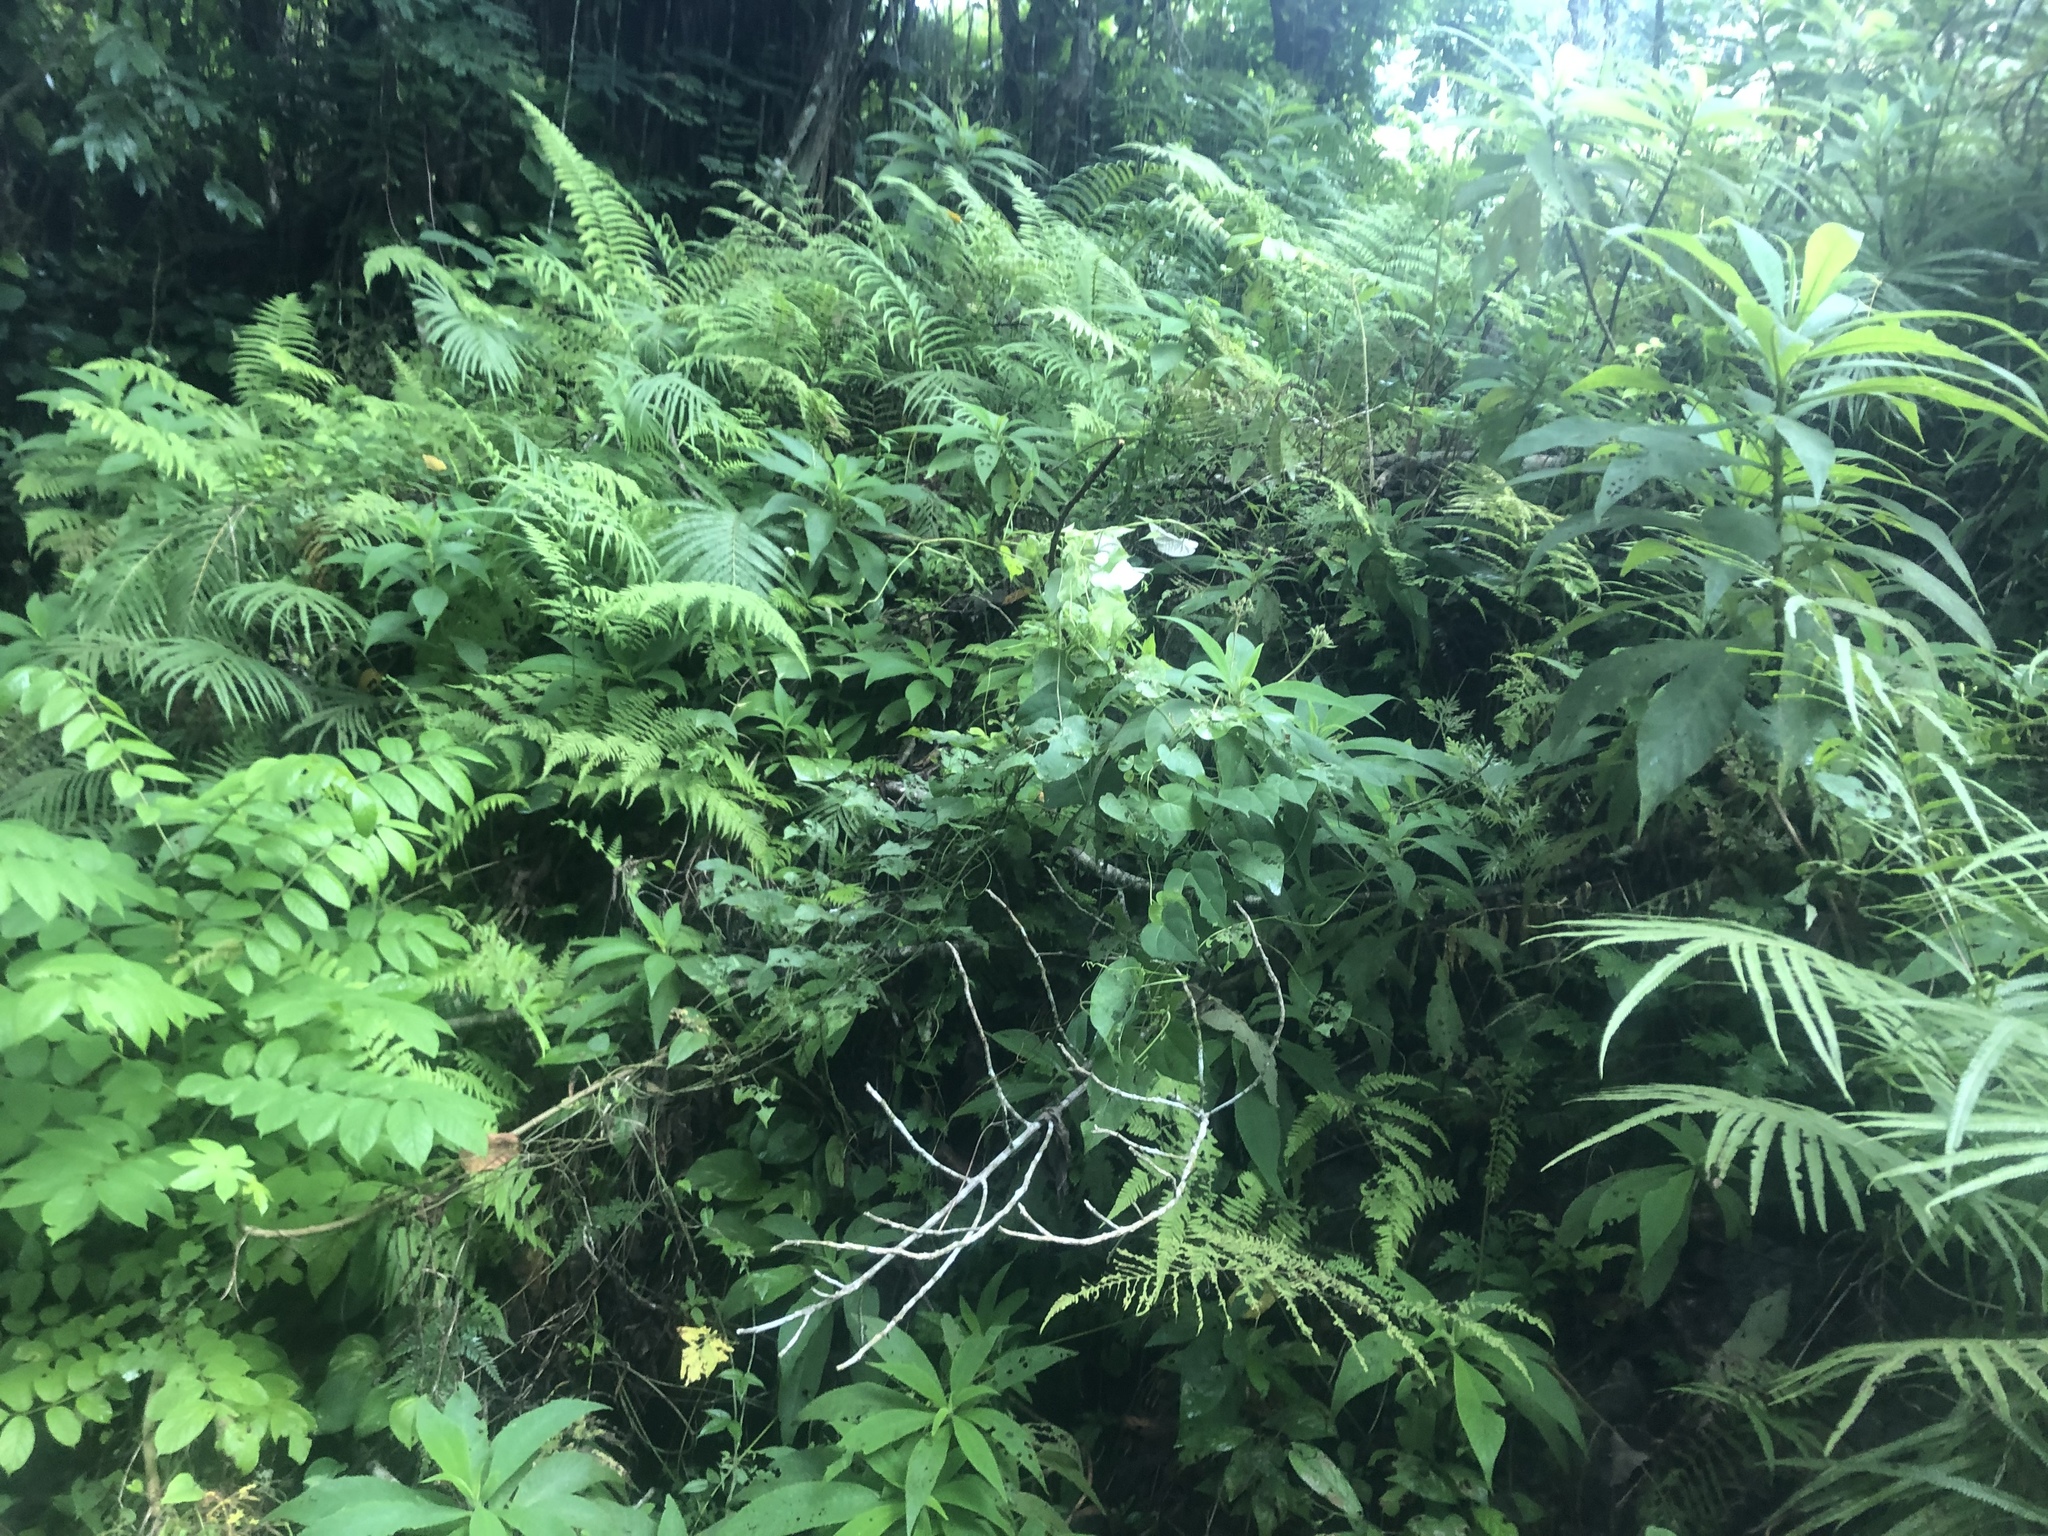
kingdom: Plantae
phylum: Tracheophyta
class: Magnoliopsida
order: Lamiales
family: Gesneriaceae
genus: Rhytidophyllum
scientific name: Rhytidophyllum tomentosum
